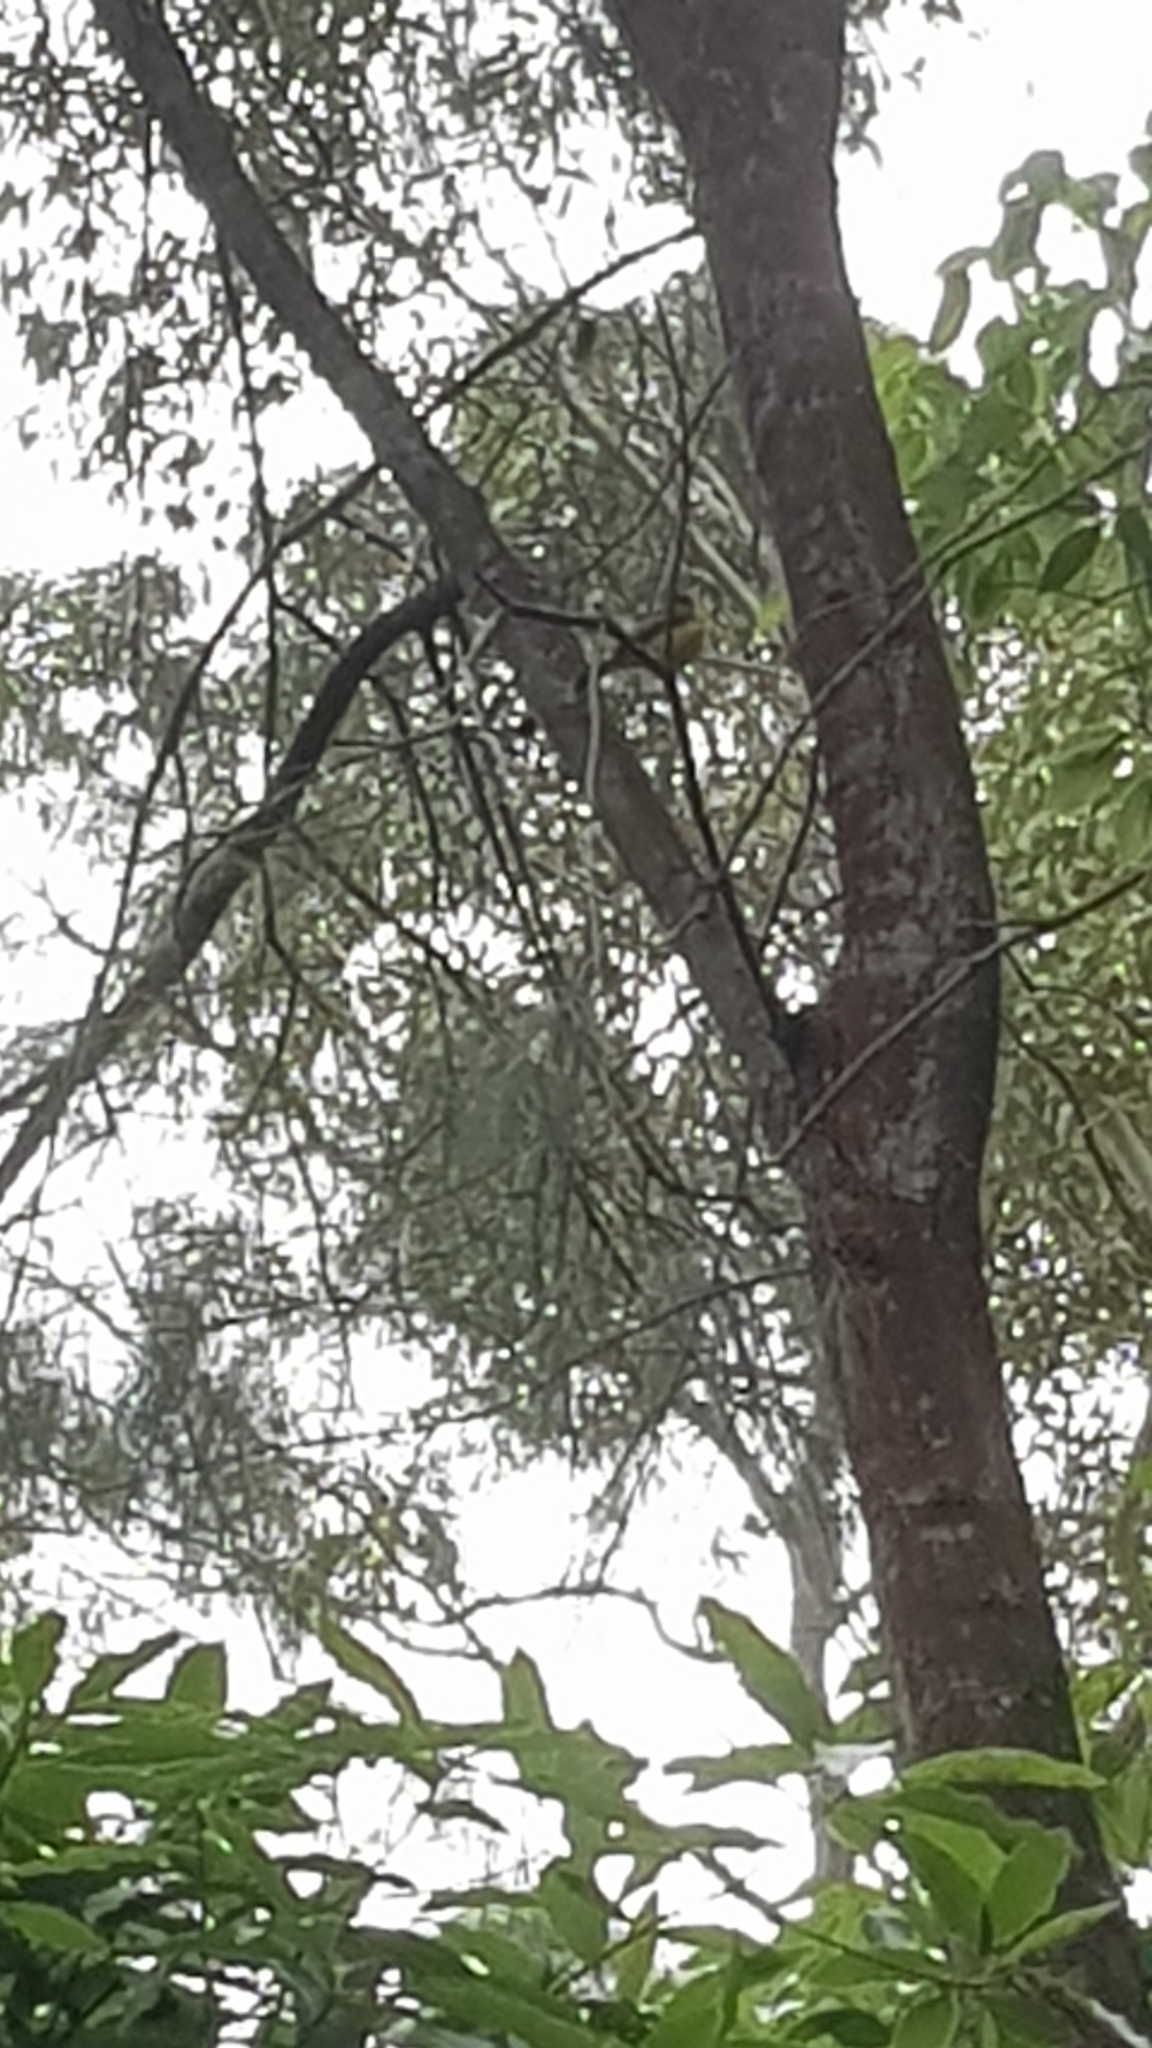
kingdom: Animalia
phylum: Chordata
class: Aves
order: Passeriformes
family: Pachycephalidae
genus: Pachycephala
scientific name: Pachycephala pectoralis
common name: Australian golden whistler
